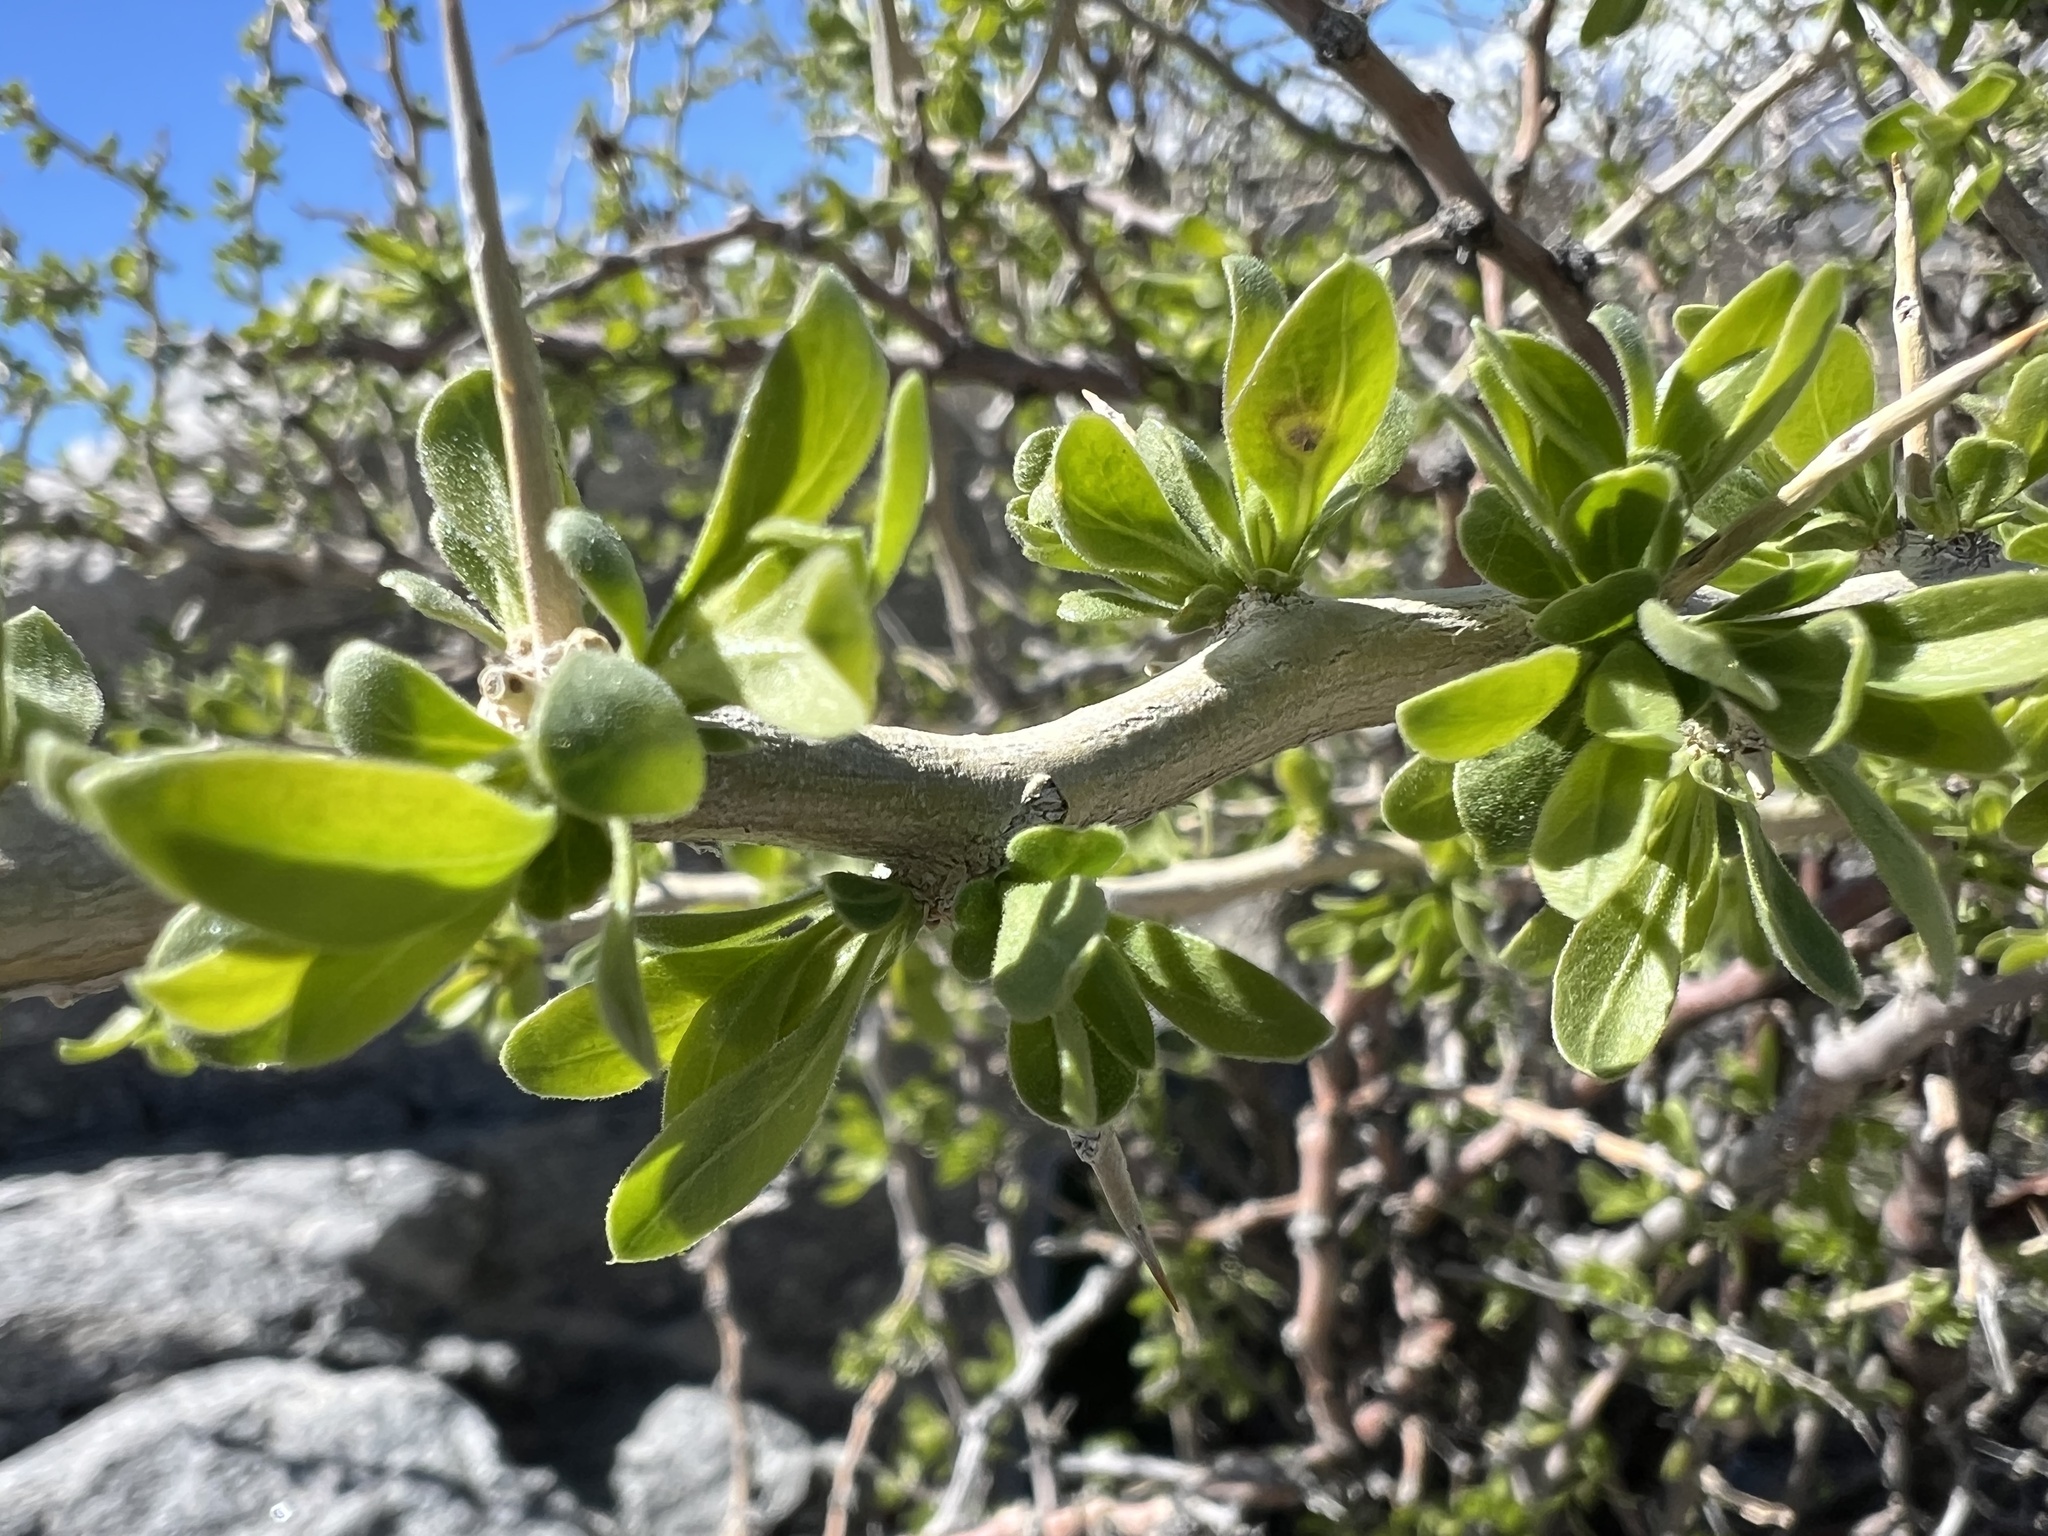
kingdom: Plantae
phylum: Tracheophyta
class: Magnoliopsida
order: Solanales
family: Solanaceae
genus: Lycium
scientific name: Lycium cooperi
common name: Peachthorn
